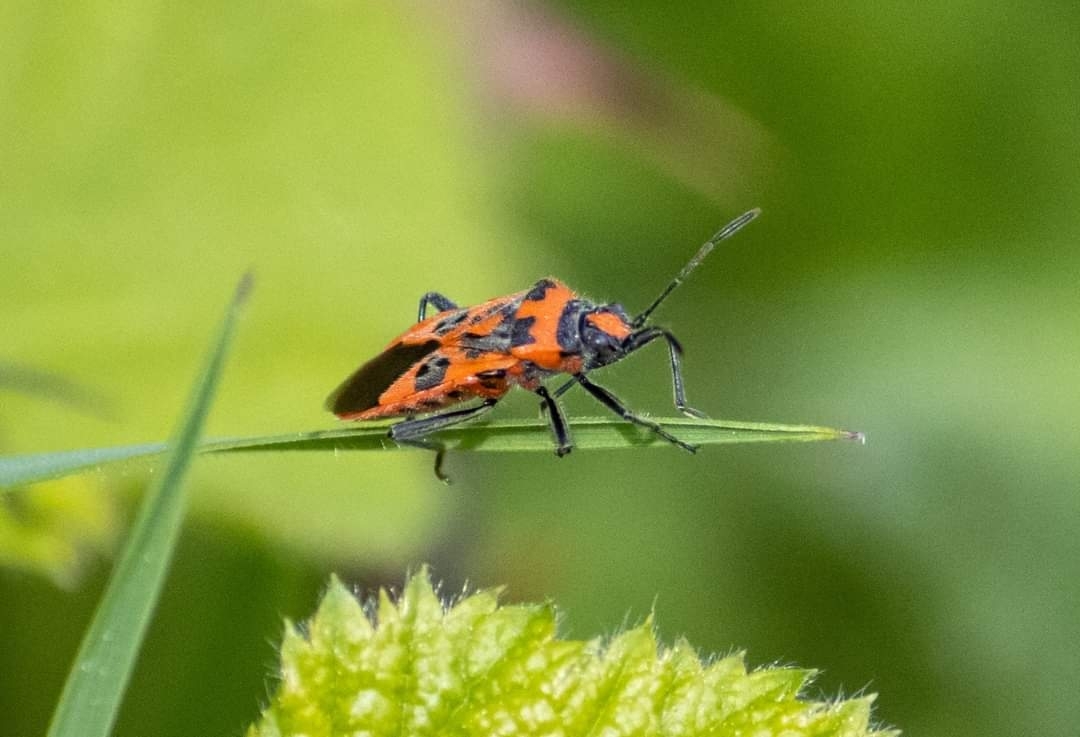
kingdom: Animalia
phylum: Arthropoda
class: Insecta
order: Hemiptera
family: Rhopalidae
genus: Corizus
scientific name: Corizus hyoscyami
